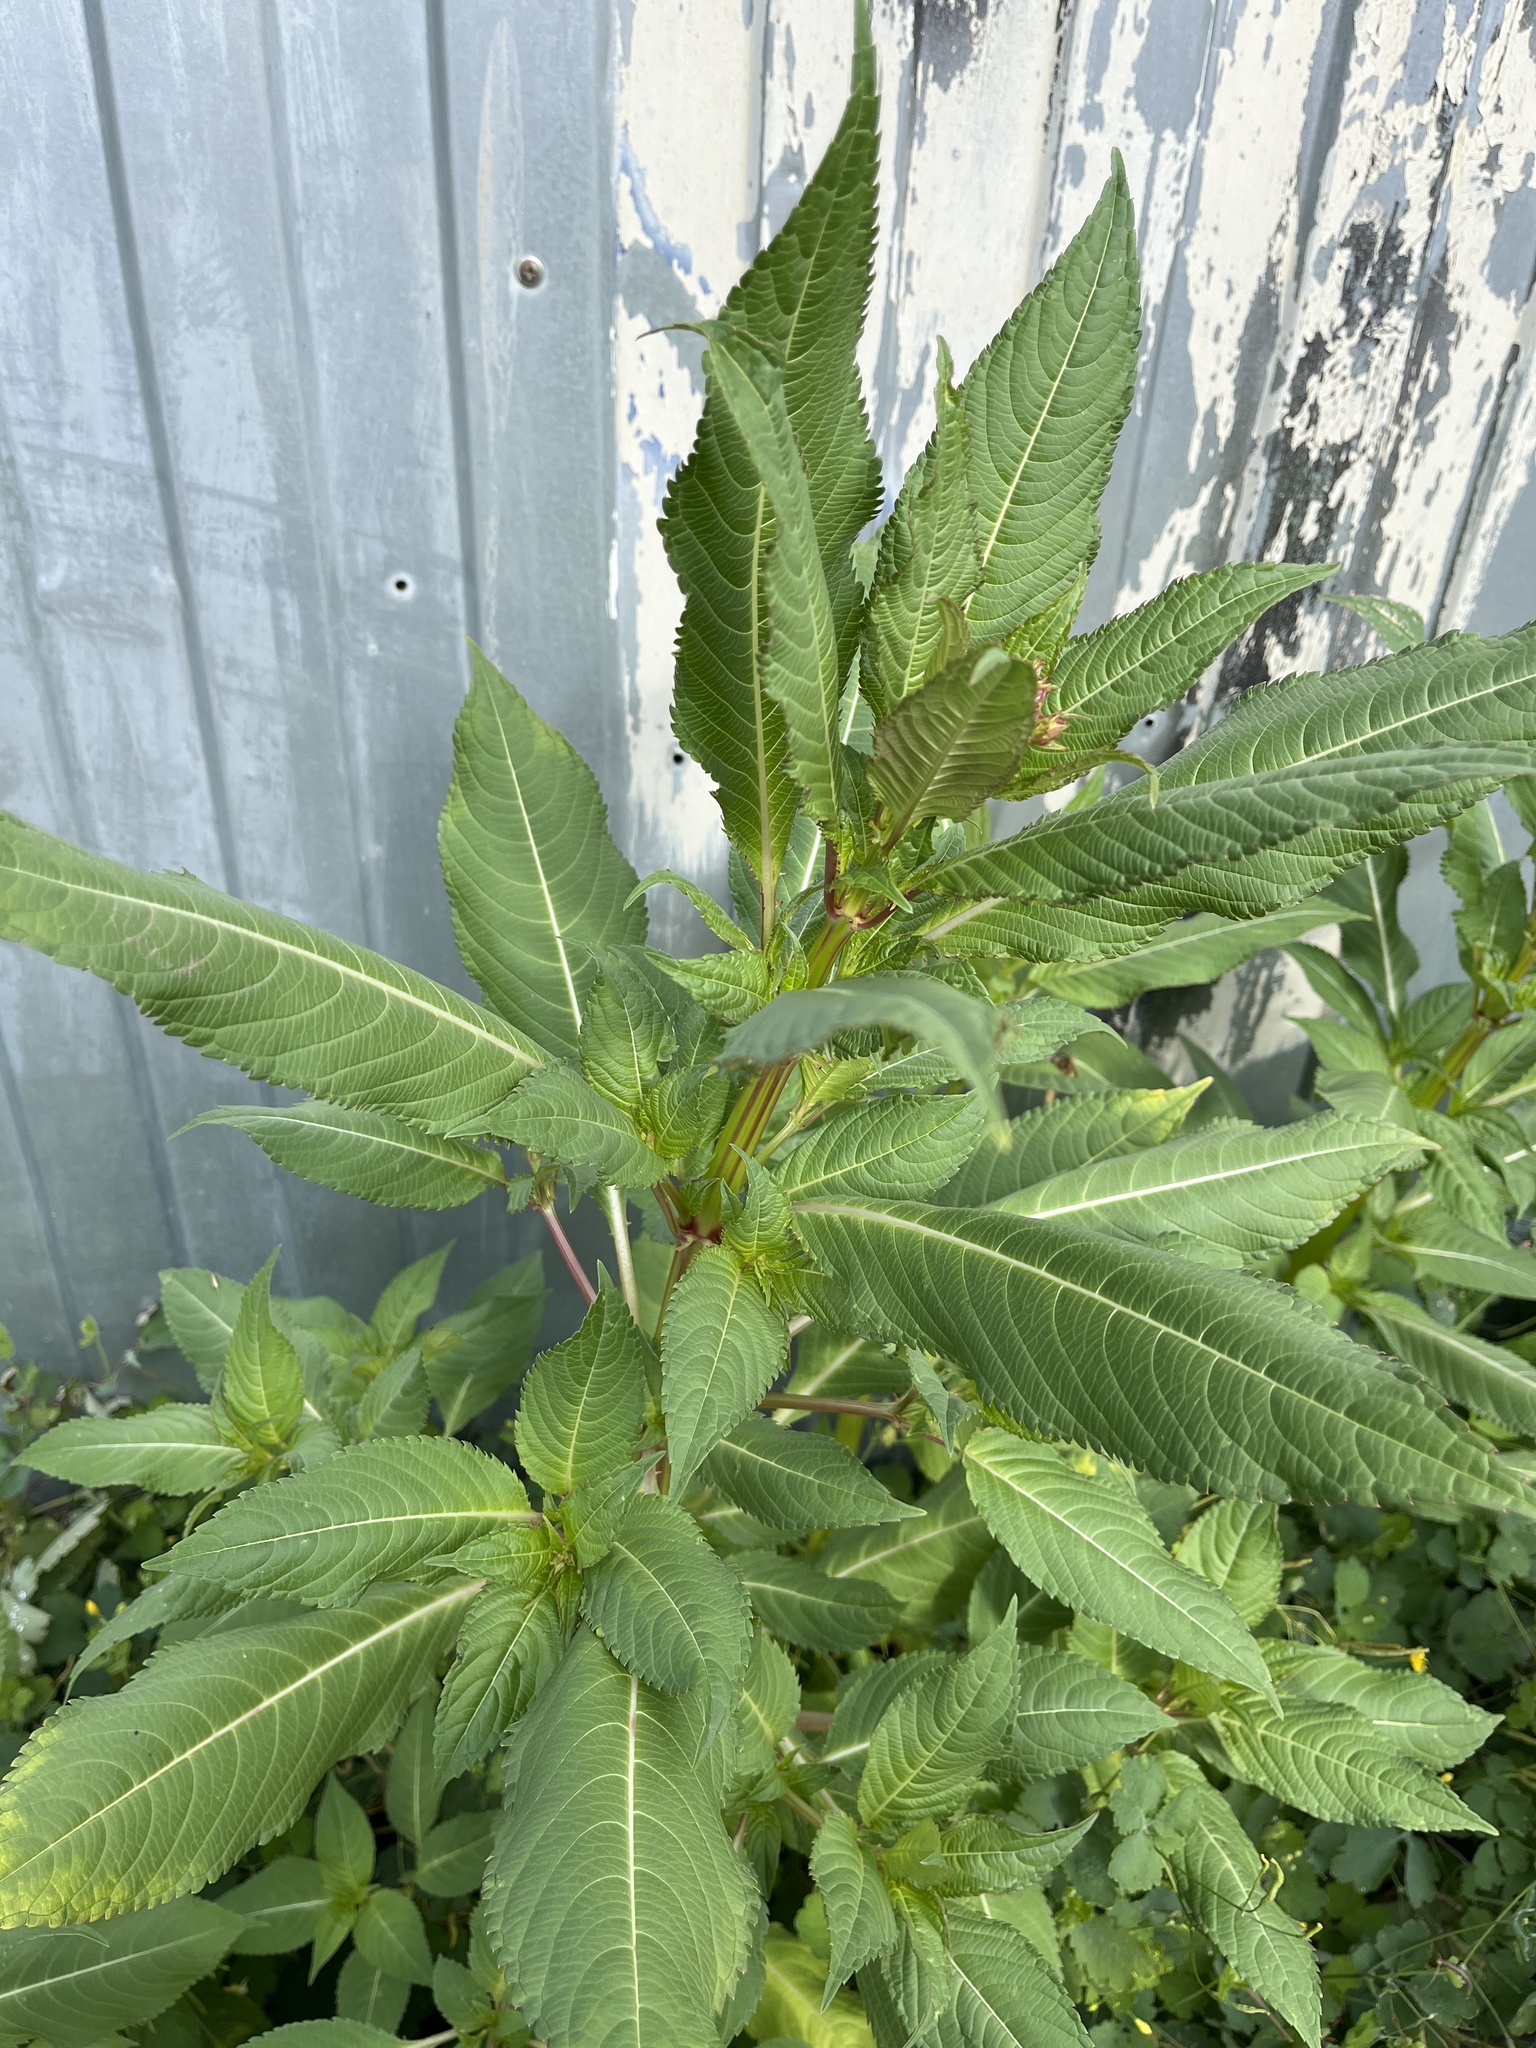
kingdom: Plantae
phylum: Tracheophyta
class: Magnoliopsida
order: Ericales
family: Balsaminaceae
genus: Impatiens
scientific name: Impatiens glandulifera
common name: Himalayan balsam
